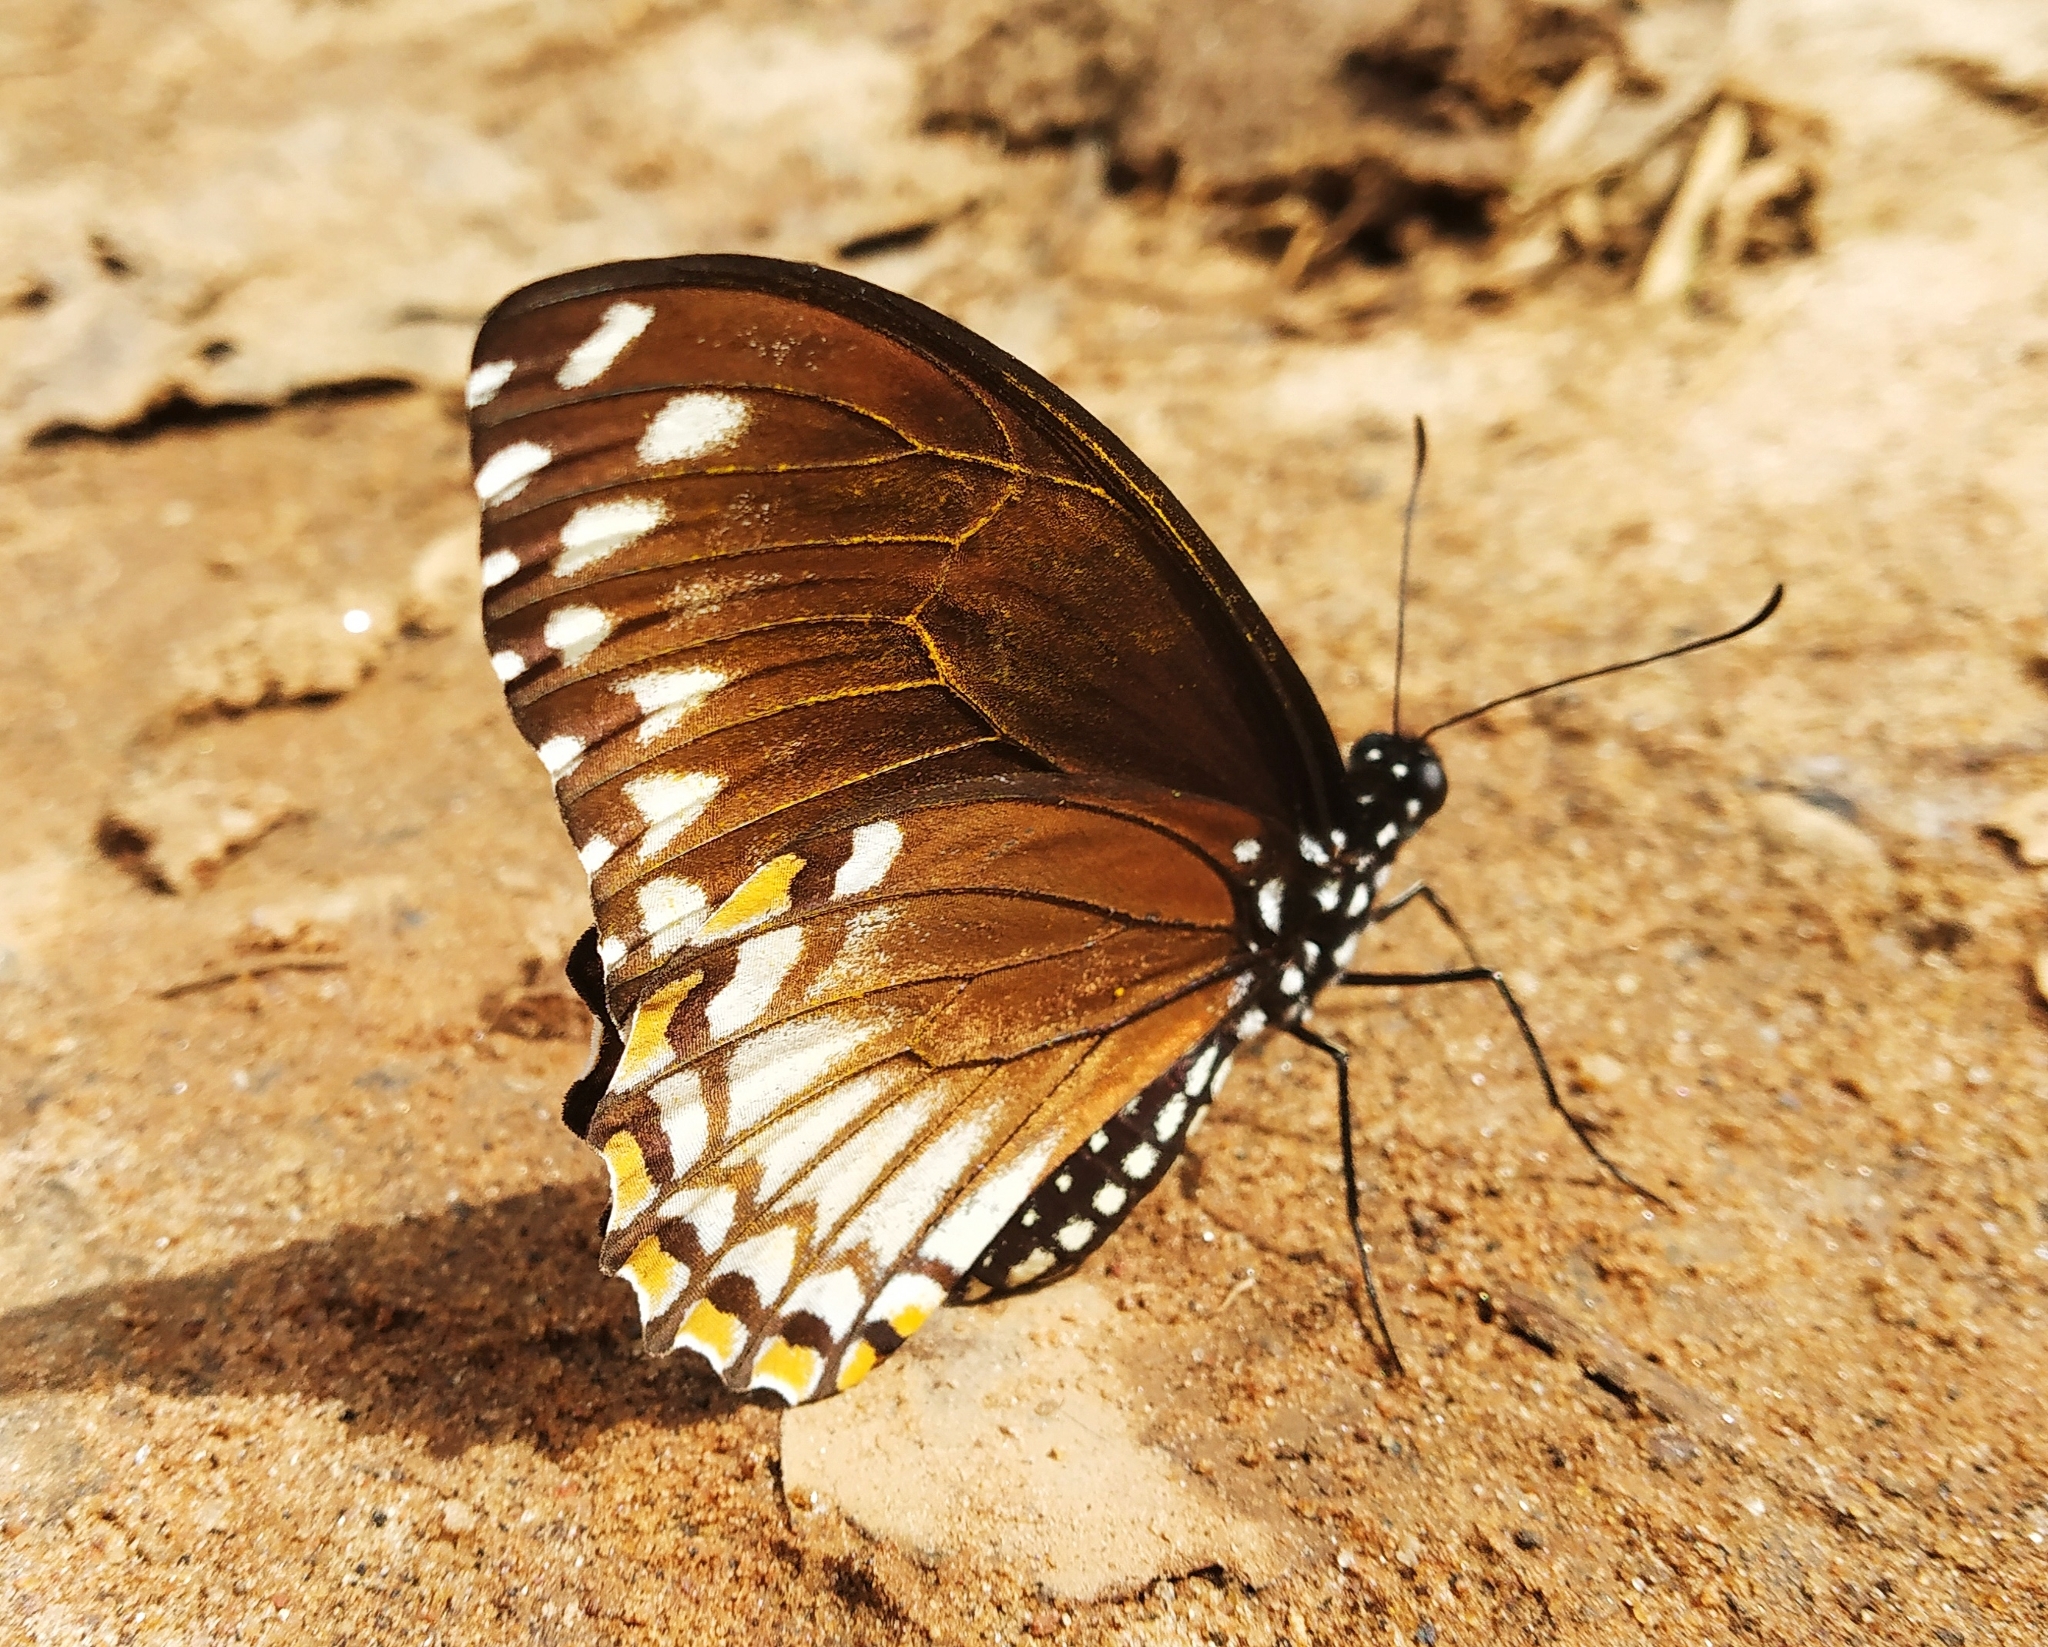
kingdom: Animalia
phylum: Arthropoda
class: Insecta
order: Lepidoptera
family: Papilionidae
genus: Chilasa
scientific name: Chilasa clytia
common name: Common mime
